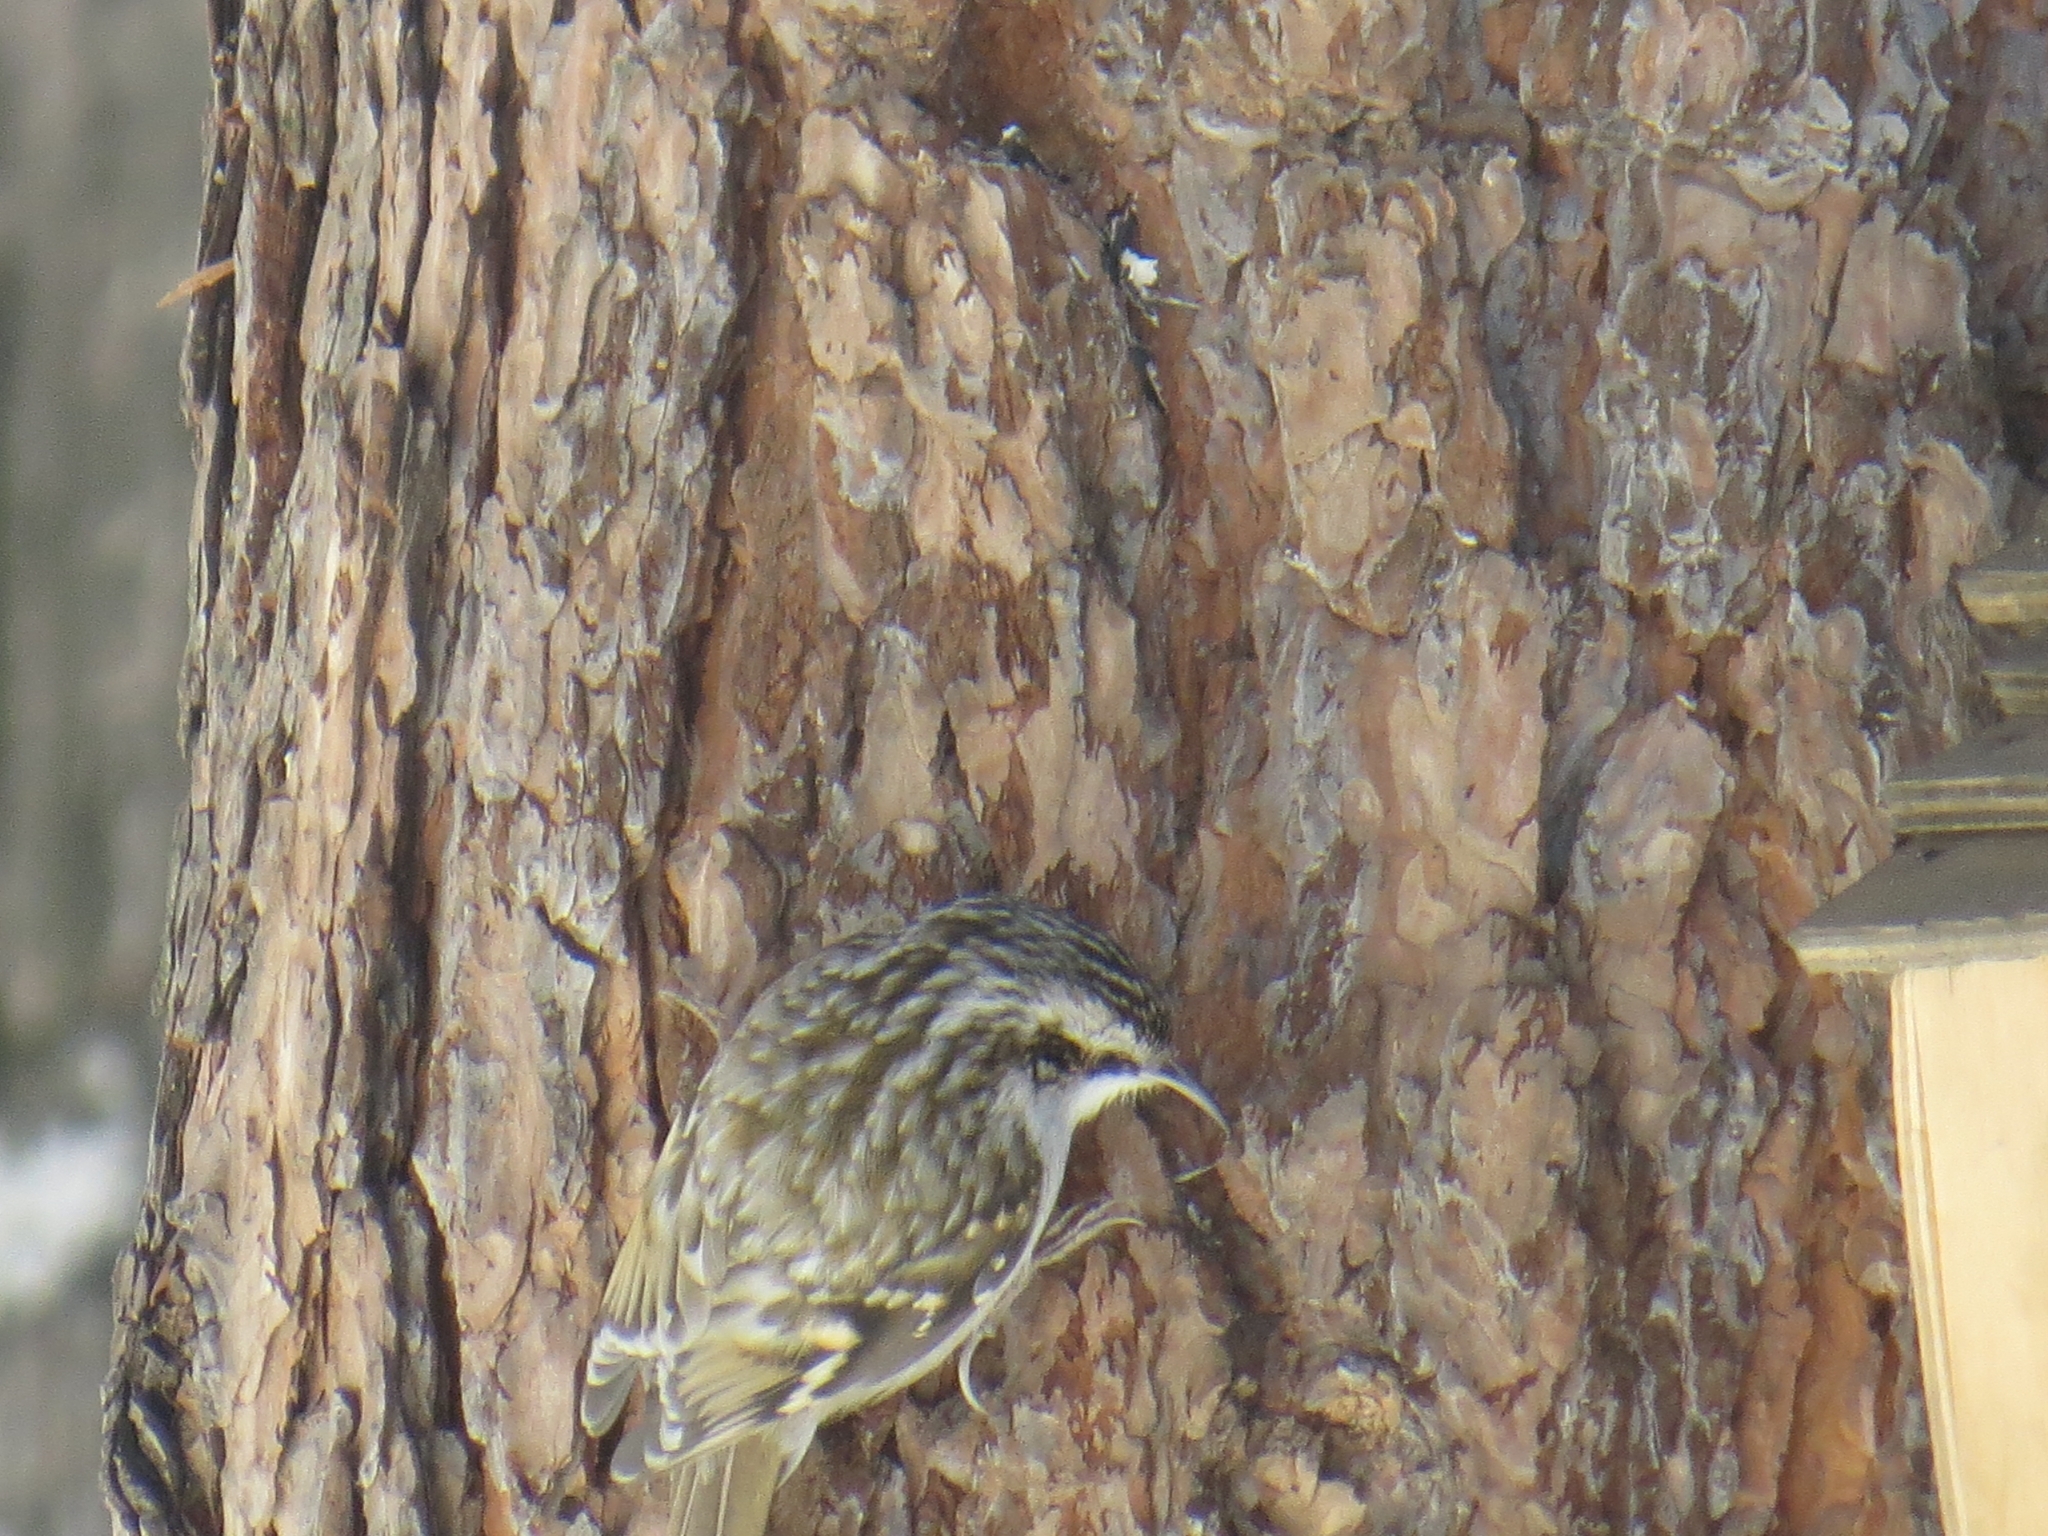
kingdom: Animalia
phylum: Chordata
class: Aves
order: Passeriformes
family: Certhiidae
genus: Certhia
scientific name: Certhia familiaris
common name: Eurasian treecreeper
